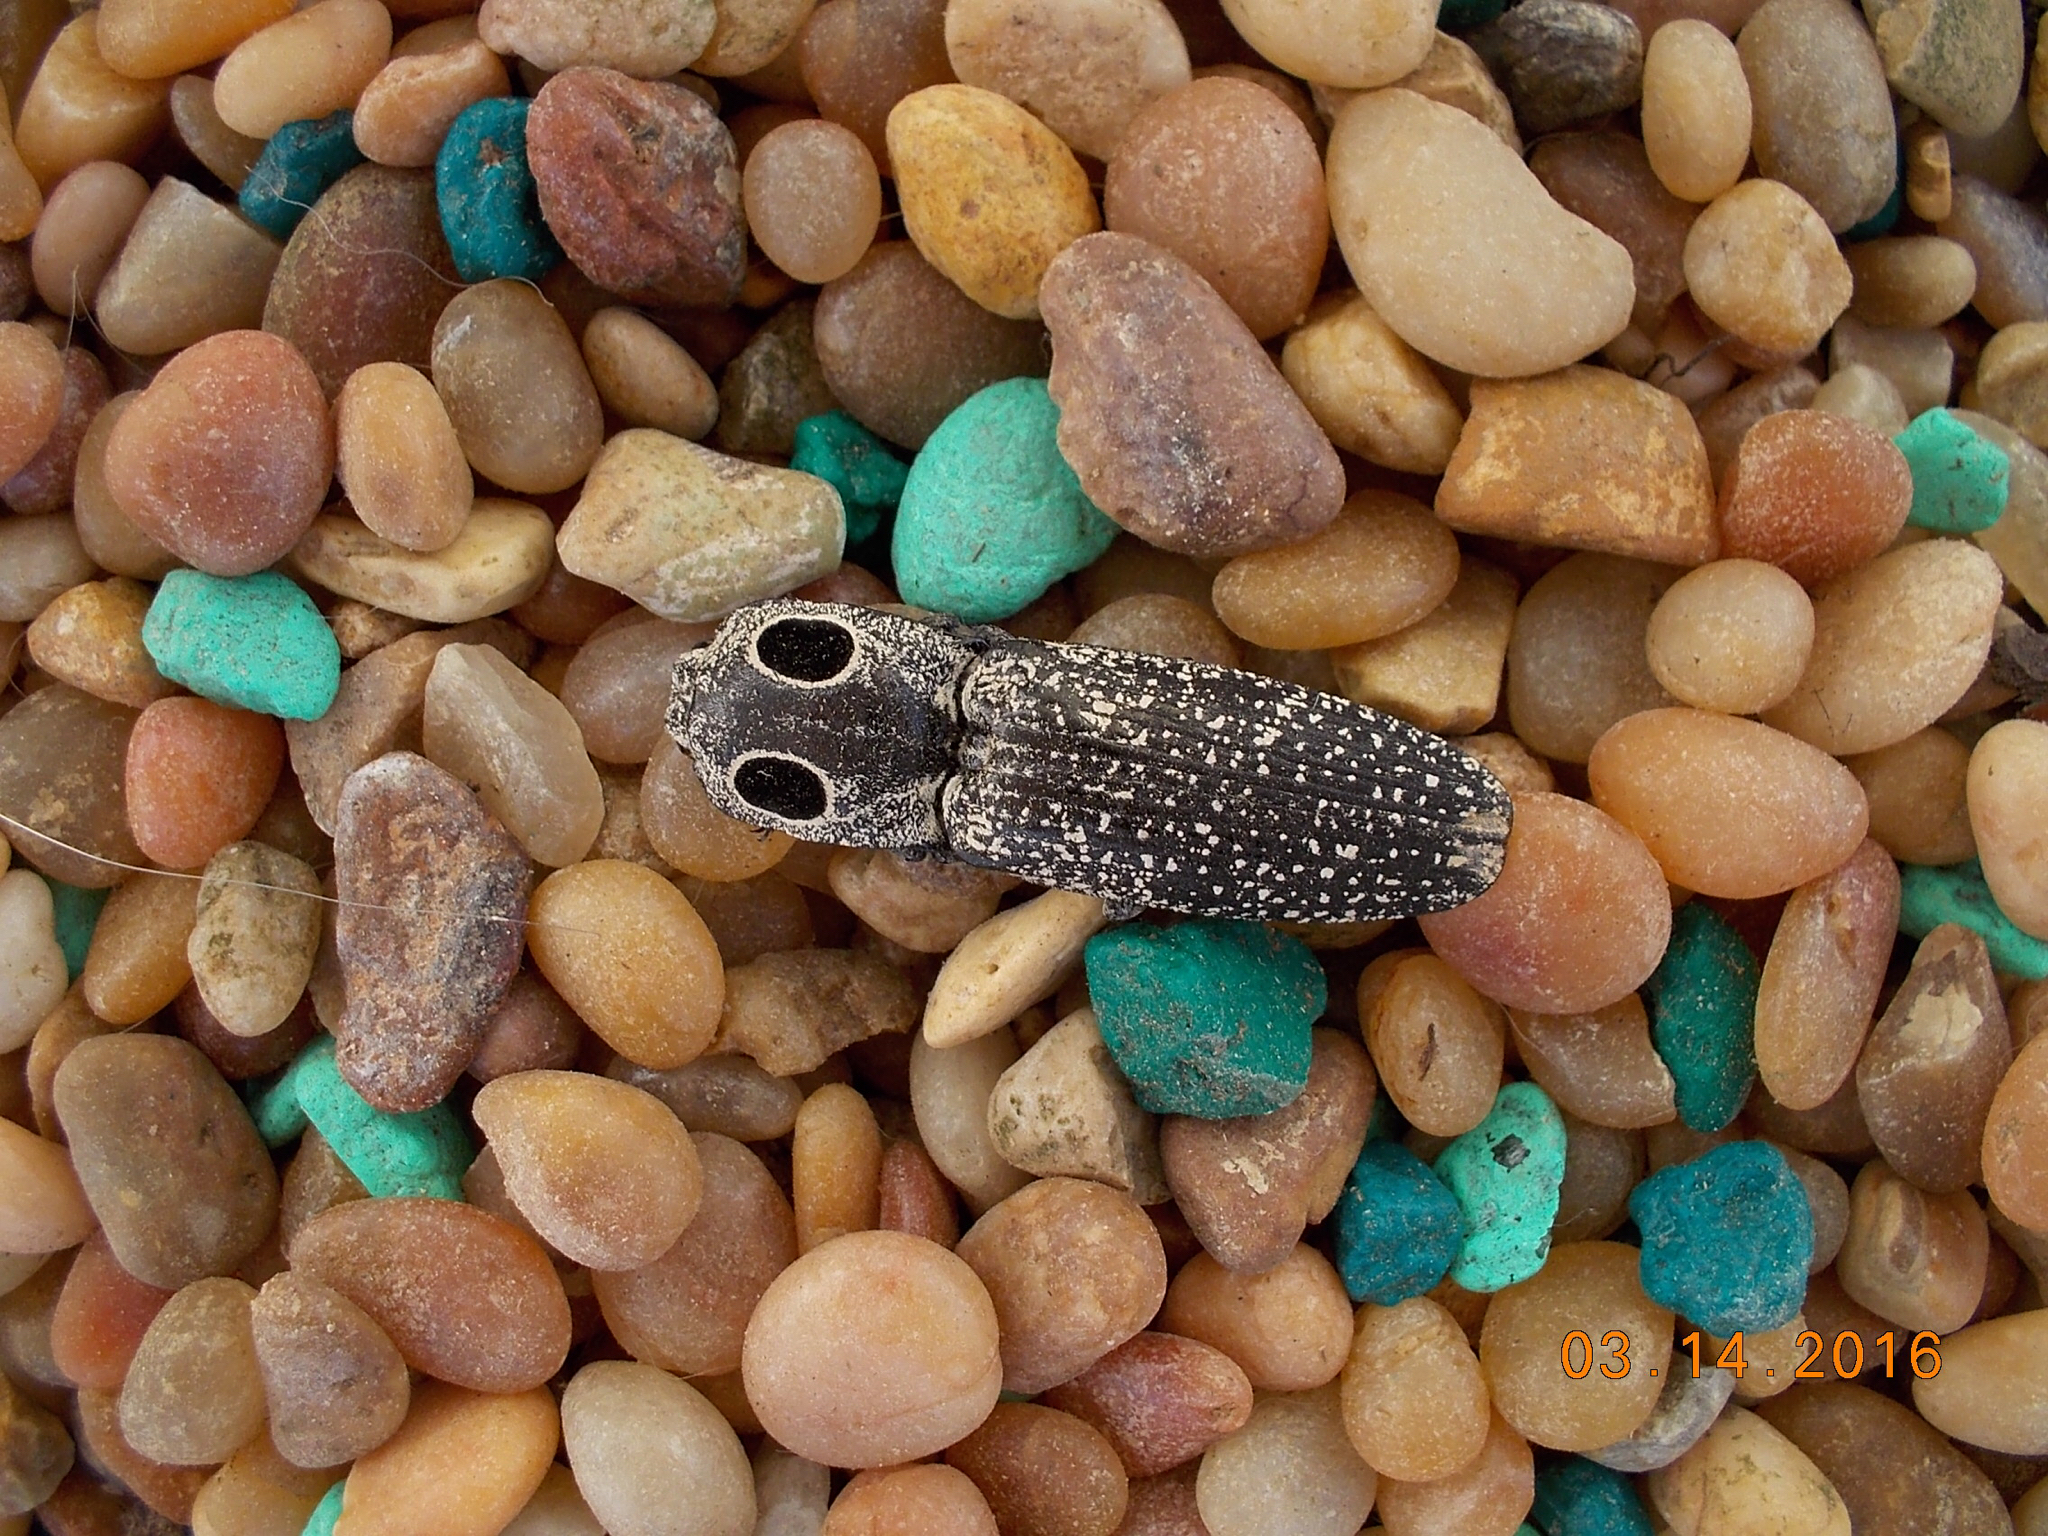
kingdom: Animalia
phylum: Arthropoda
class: Insecta
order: Coleoptera
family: Elateridae
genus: Alaus
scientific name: Alaus oculatus
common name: Eastern eyed click beetle
